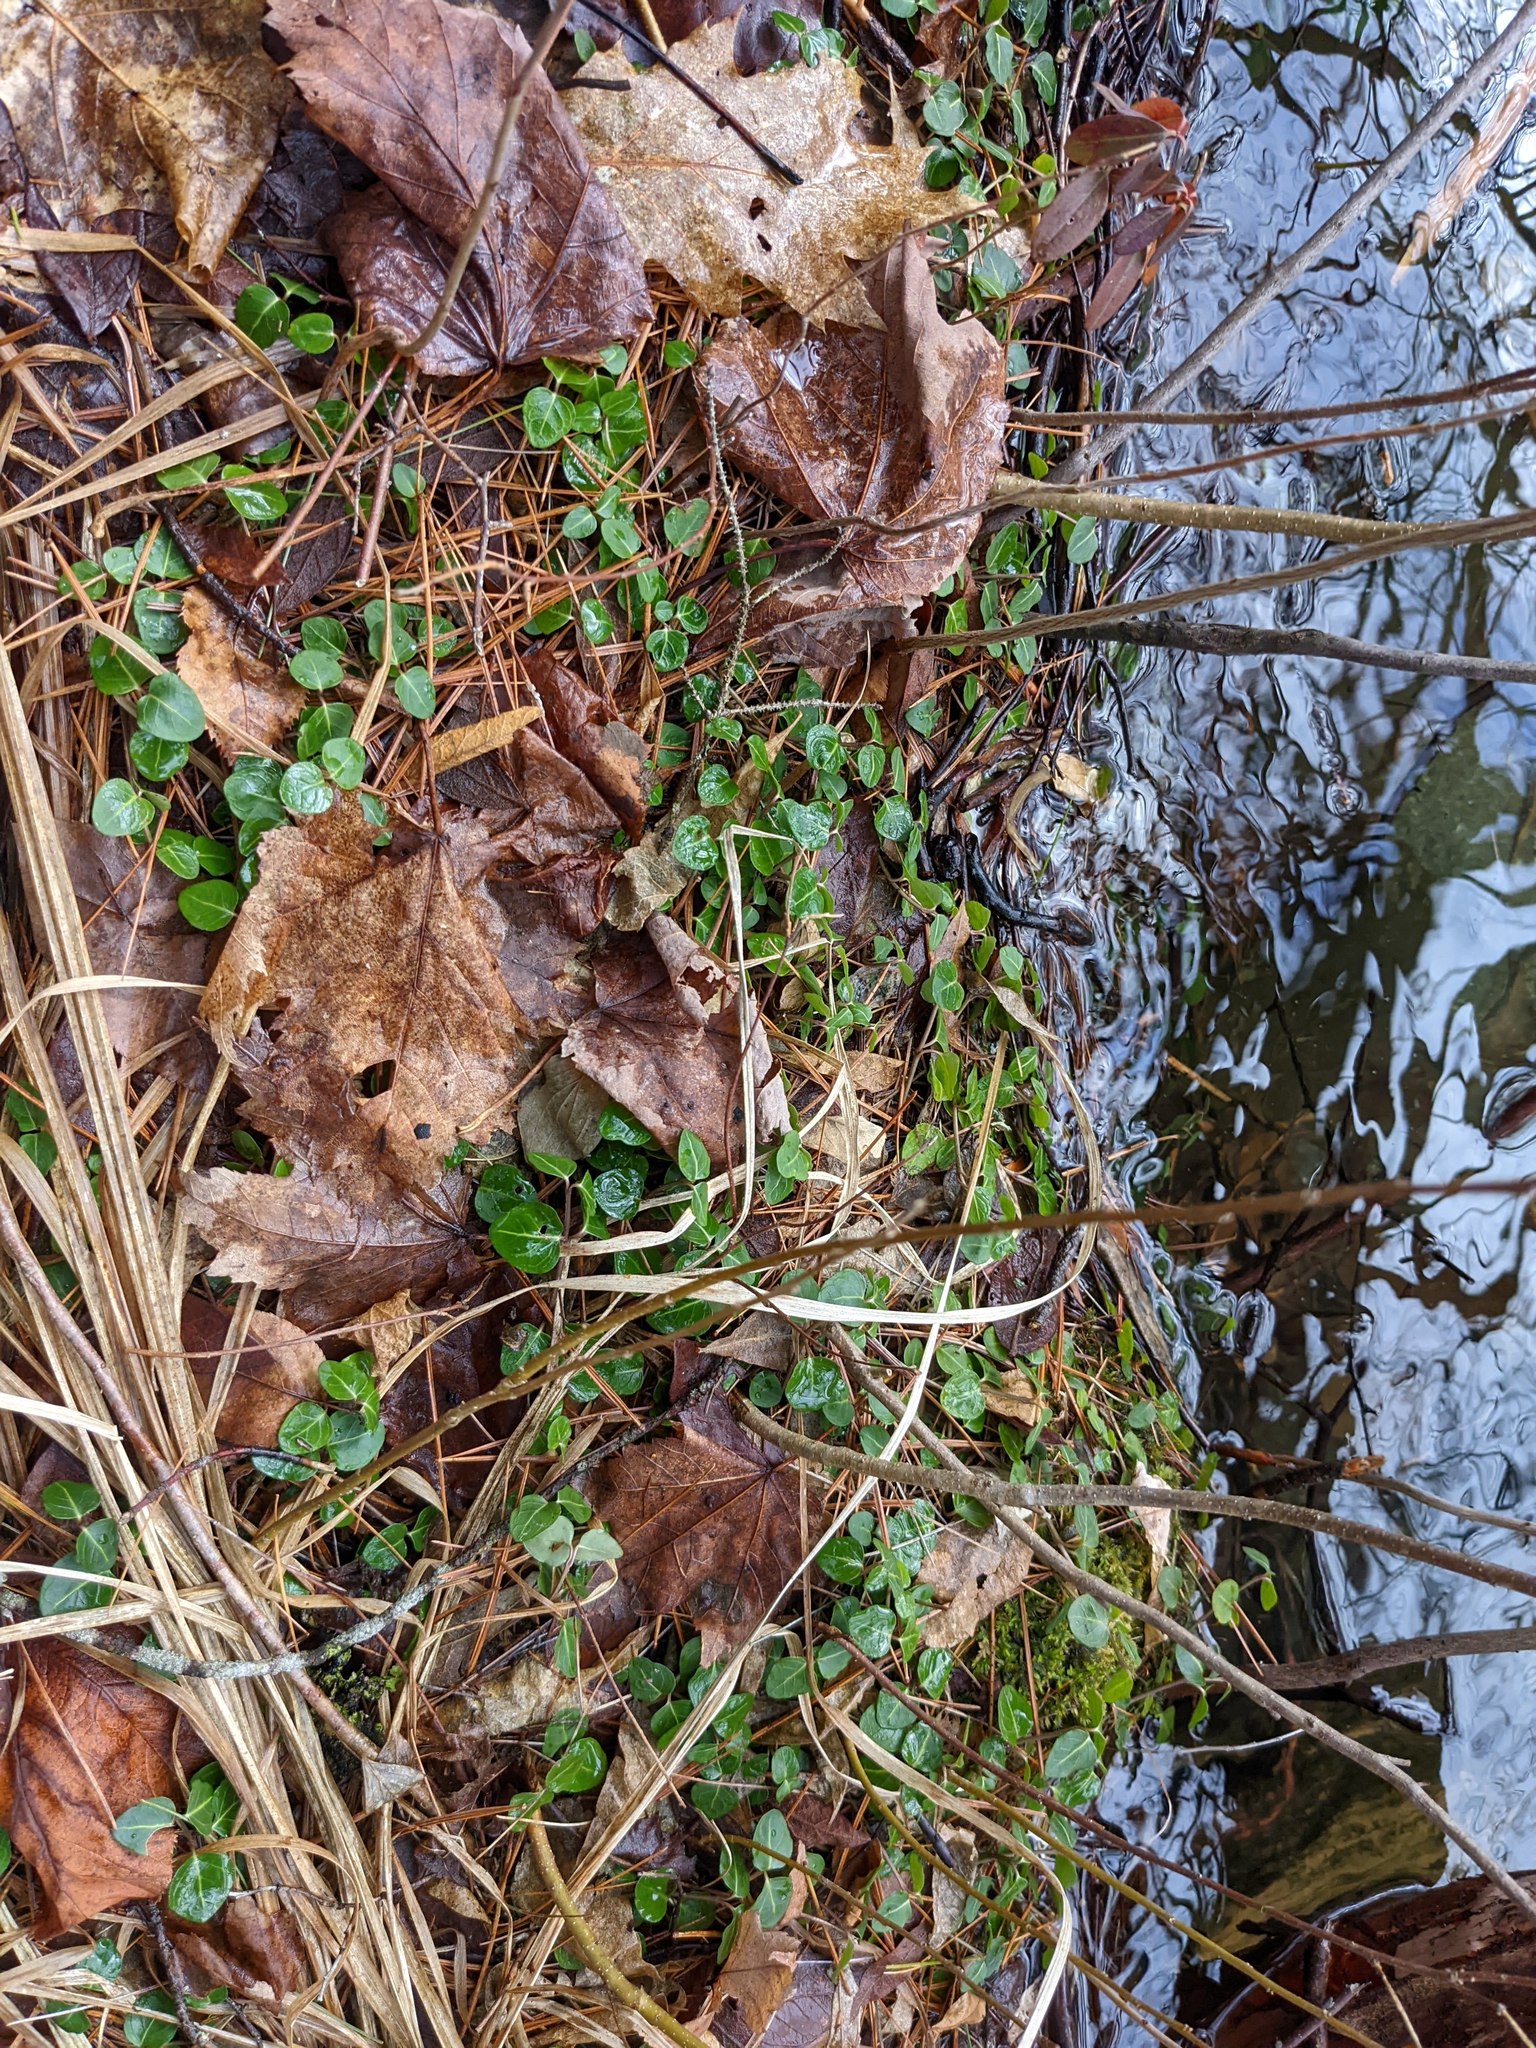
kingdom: Plantae
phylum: Tracheophyta
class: Magnoliopsida
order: Gentianales
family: Rubiaceae
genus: Mitchella
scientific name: Mitchella repens
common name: Partridge-berry
